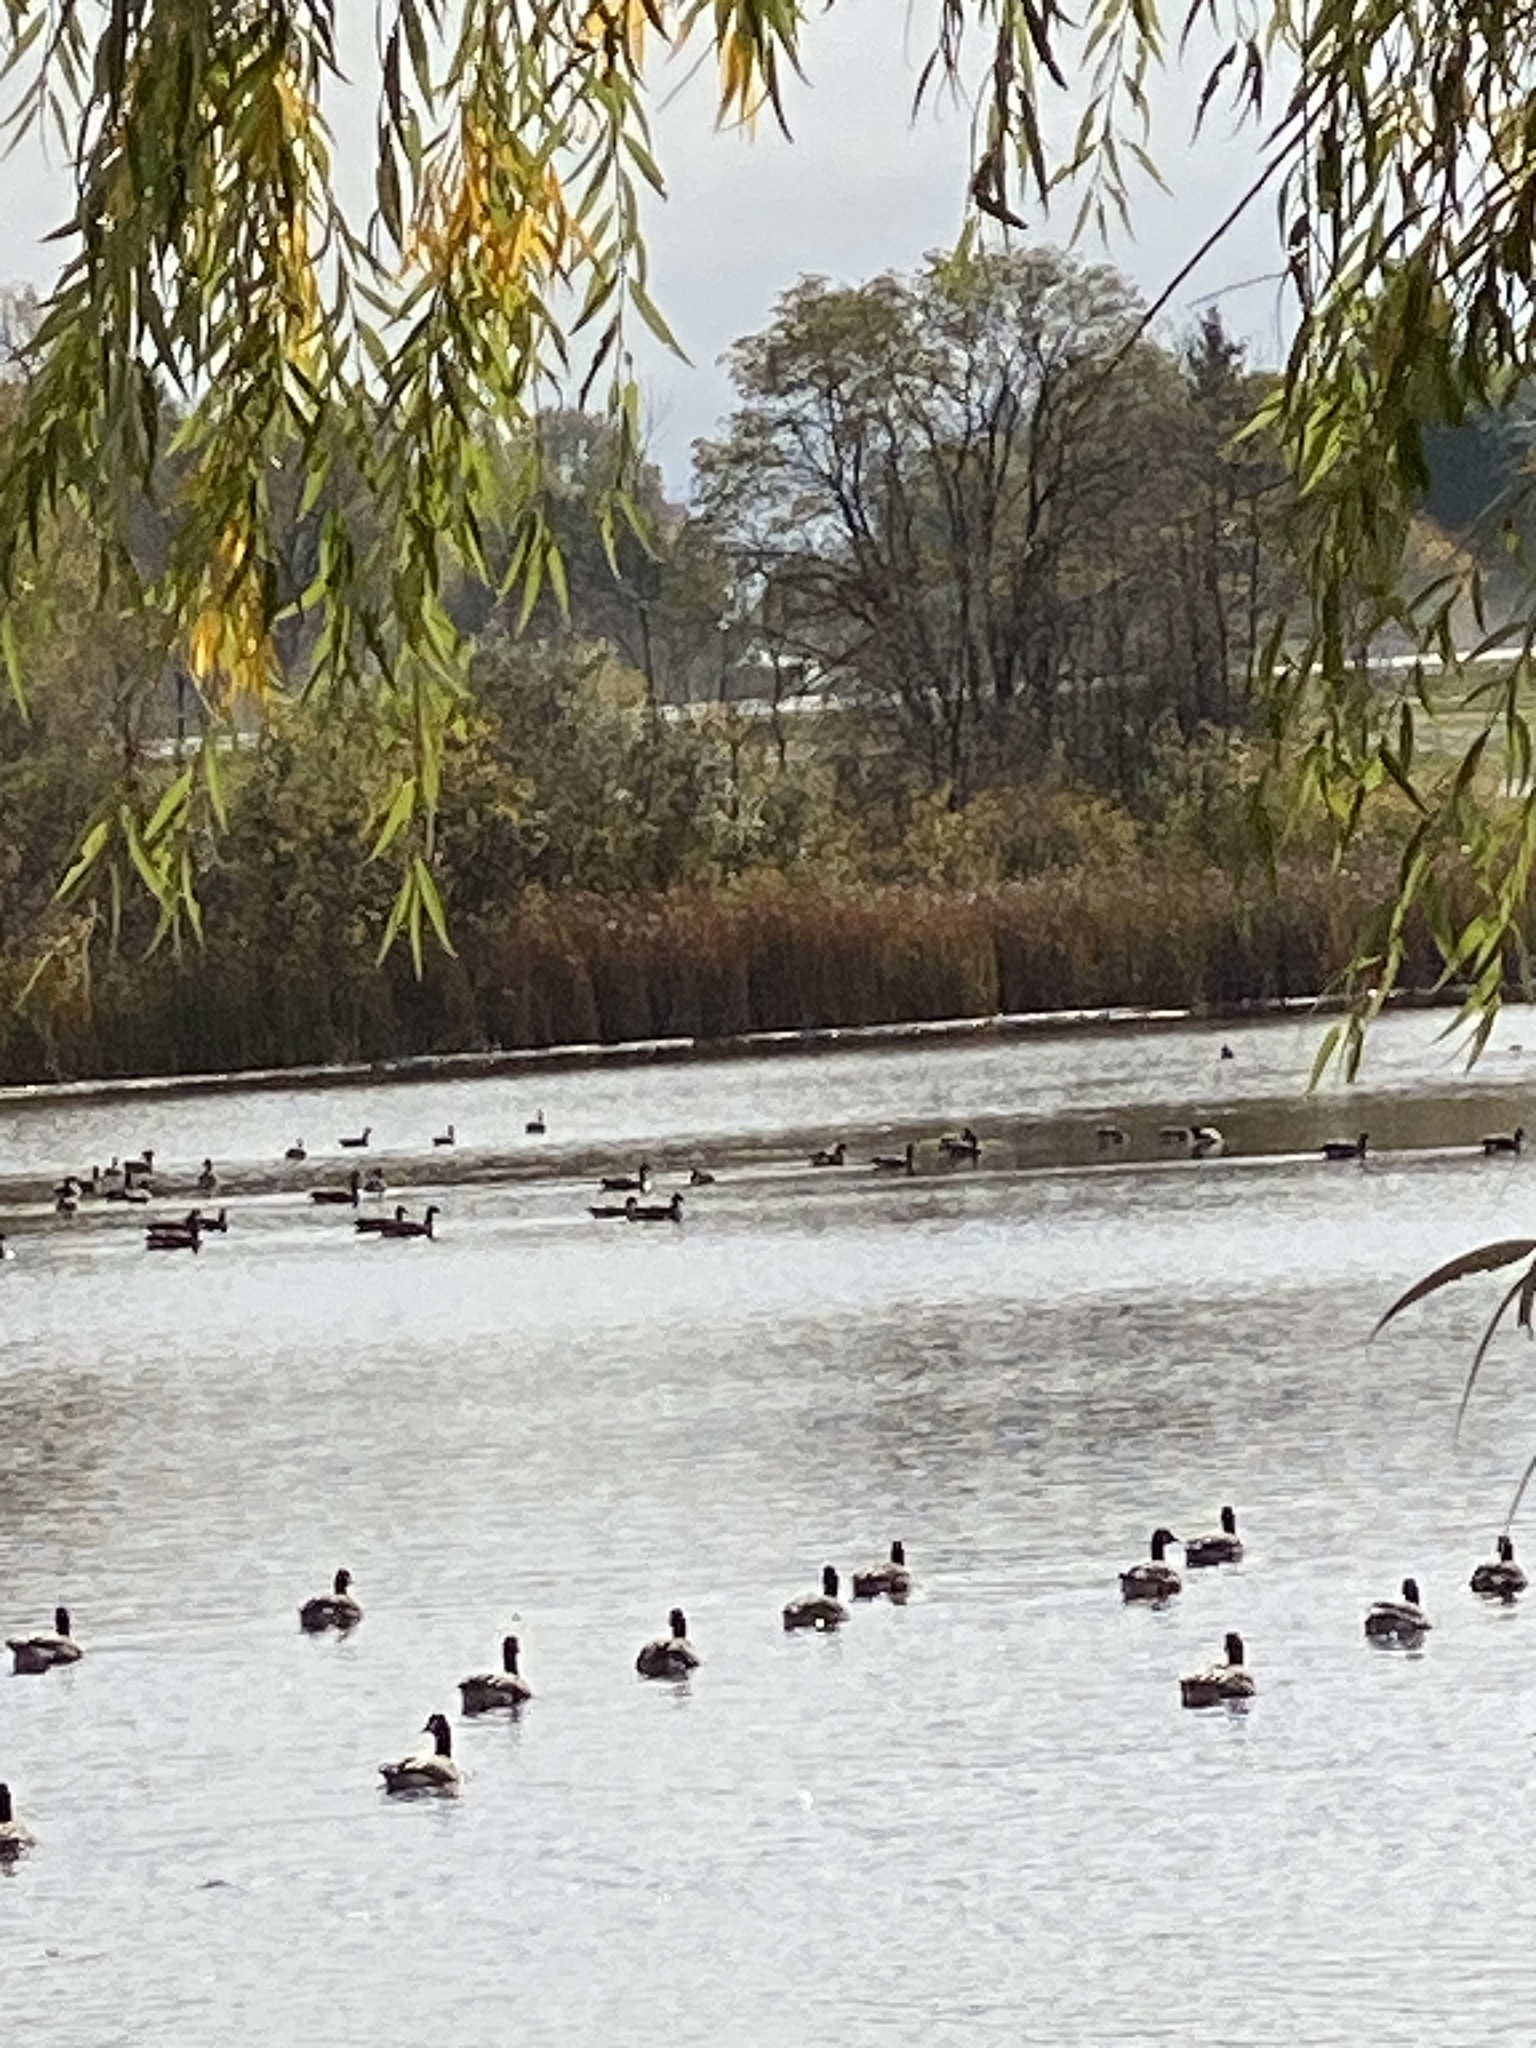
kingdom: Animalia
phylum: Chordata
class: Aves
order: Anseriformes
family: Anatidae
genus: Branta
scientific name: Branta canadensis
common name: Canada goose
